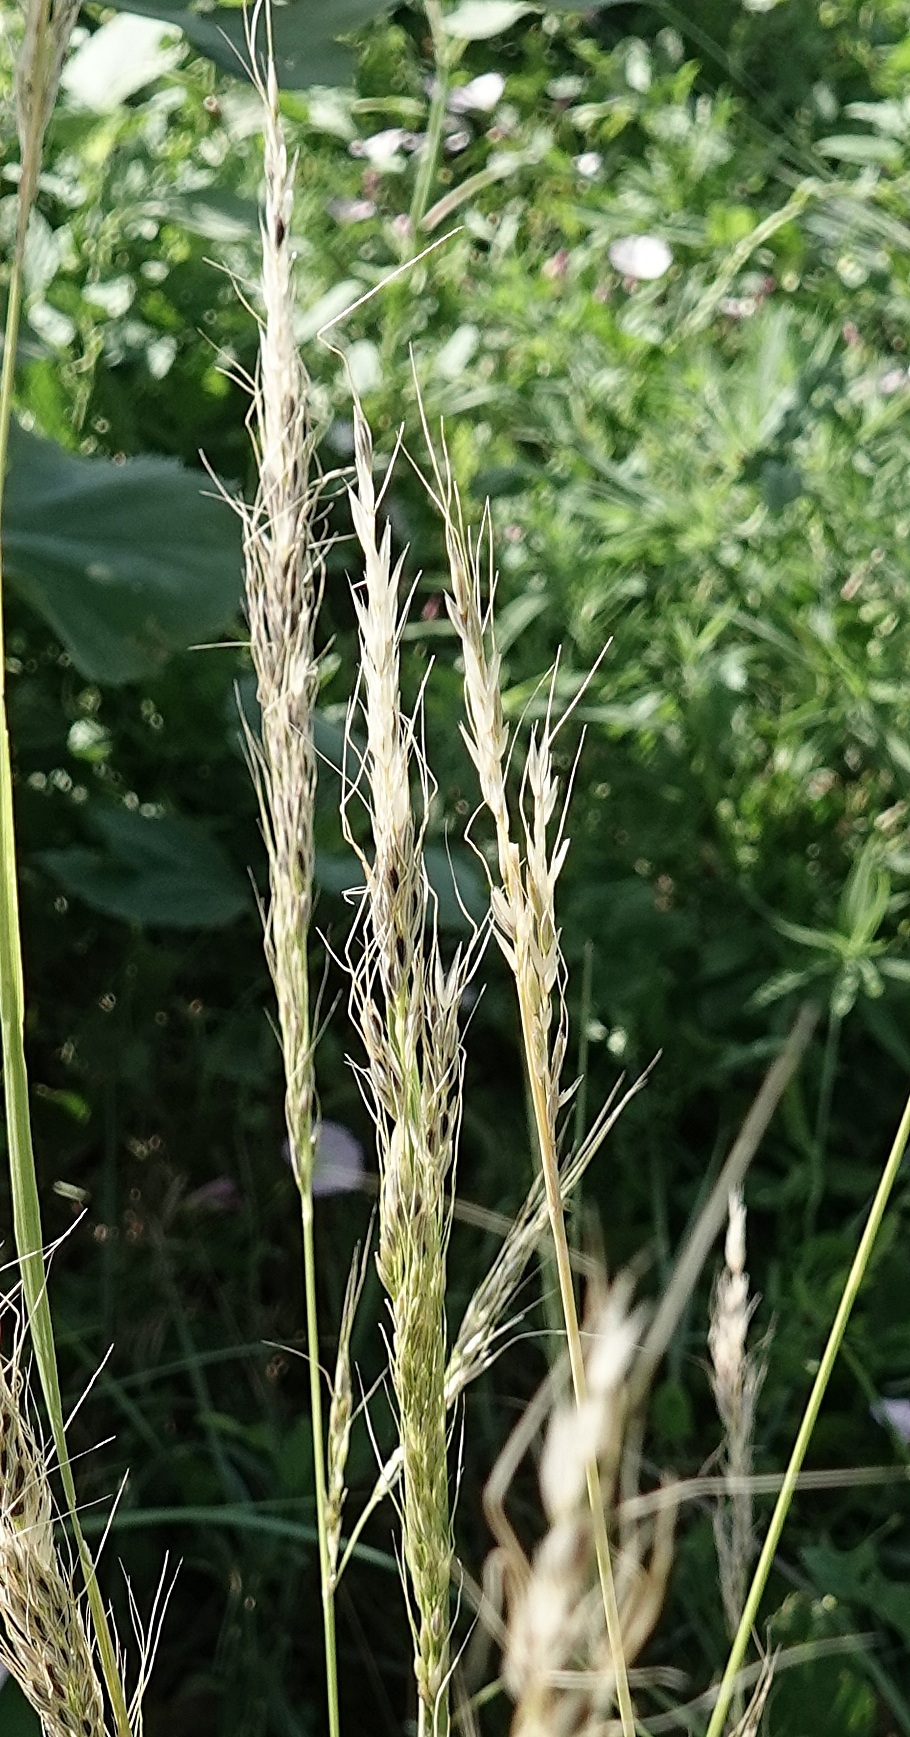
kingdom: Plantae
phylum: Tracheophyta
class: Liliopsida
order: Poales
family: Poaceae
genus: Nassella
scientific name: Nassella viridula
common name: Green needlegrass
